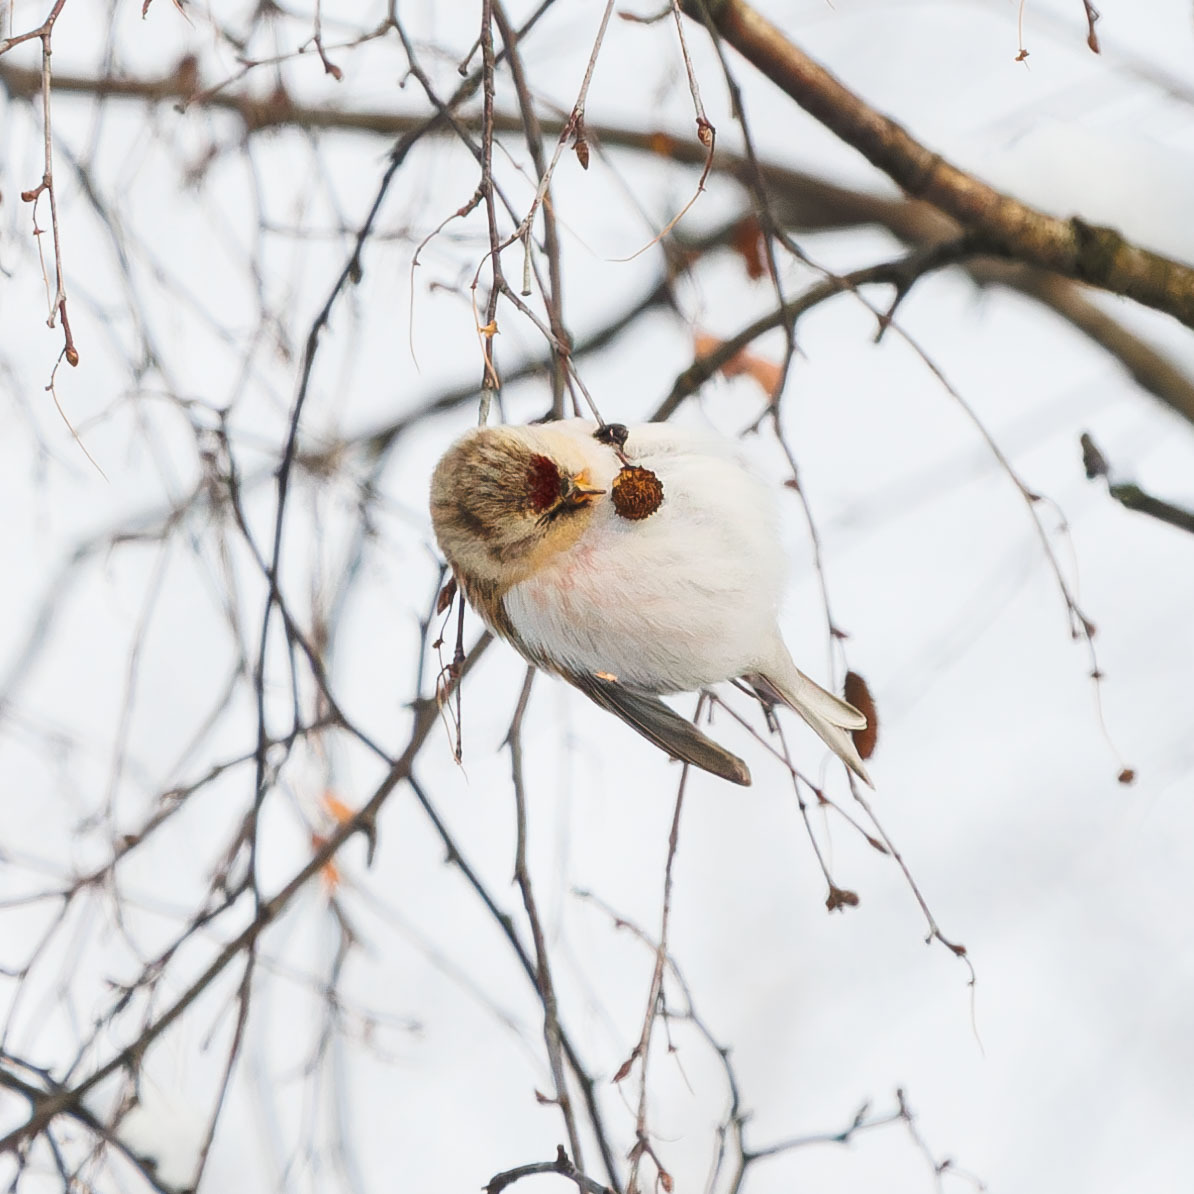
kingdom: Animalia
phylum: Chordata
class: Aves
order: Passeriformes
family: Fringillidae
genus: Acanthis
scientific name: Acanthis hornemanni
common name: Arctic redpoll
